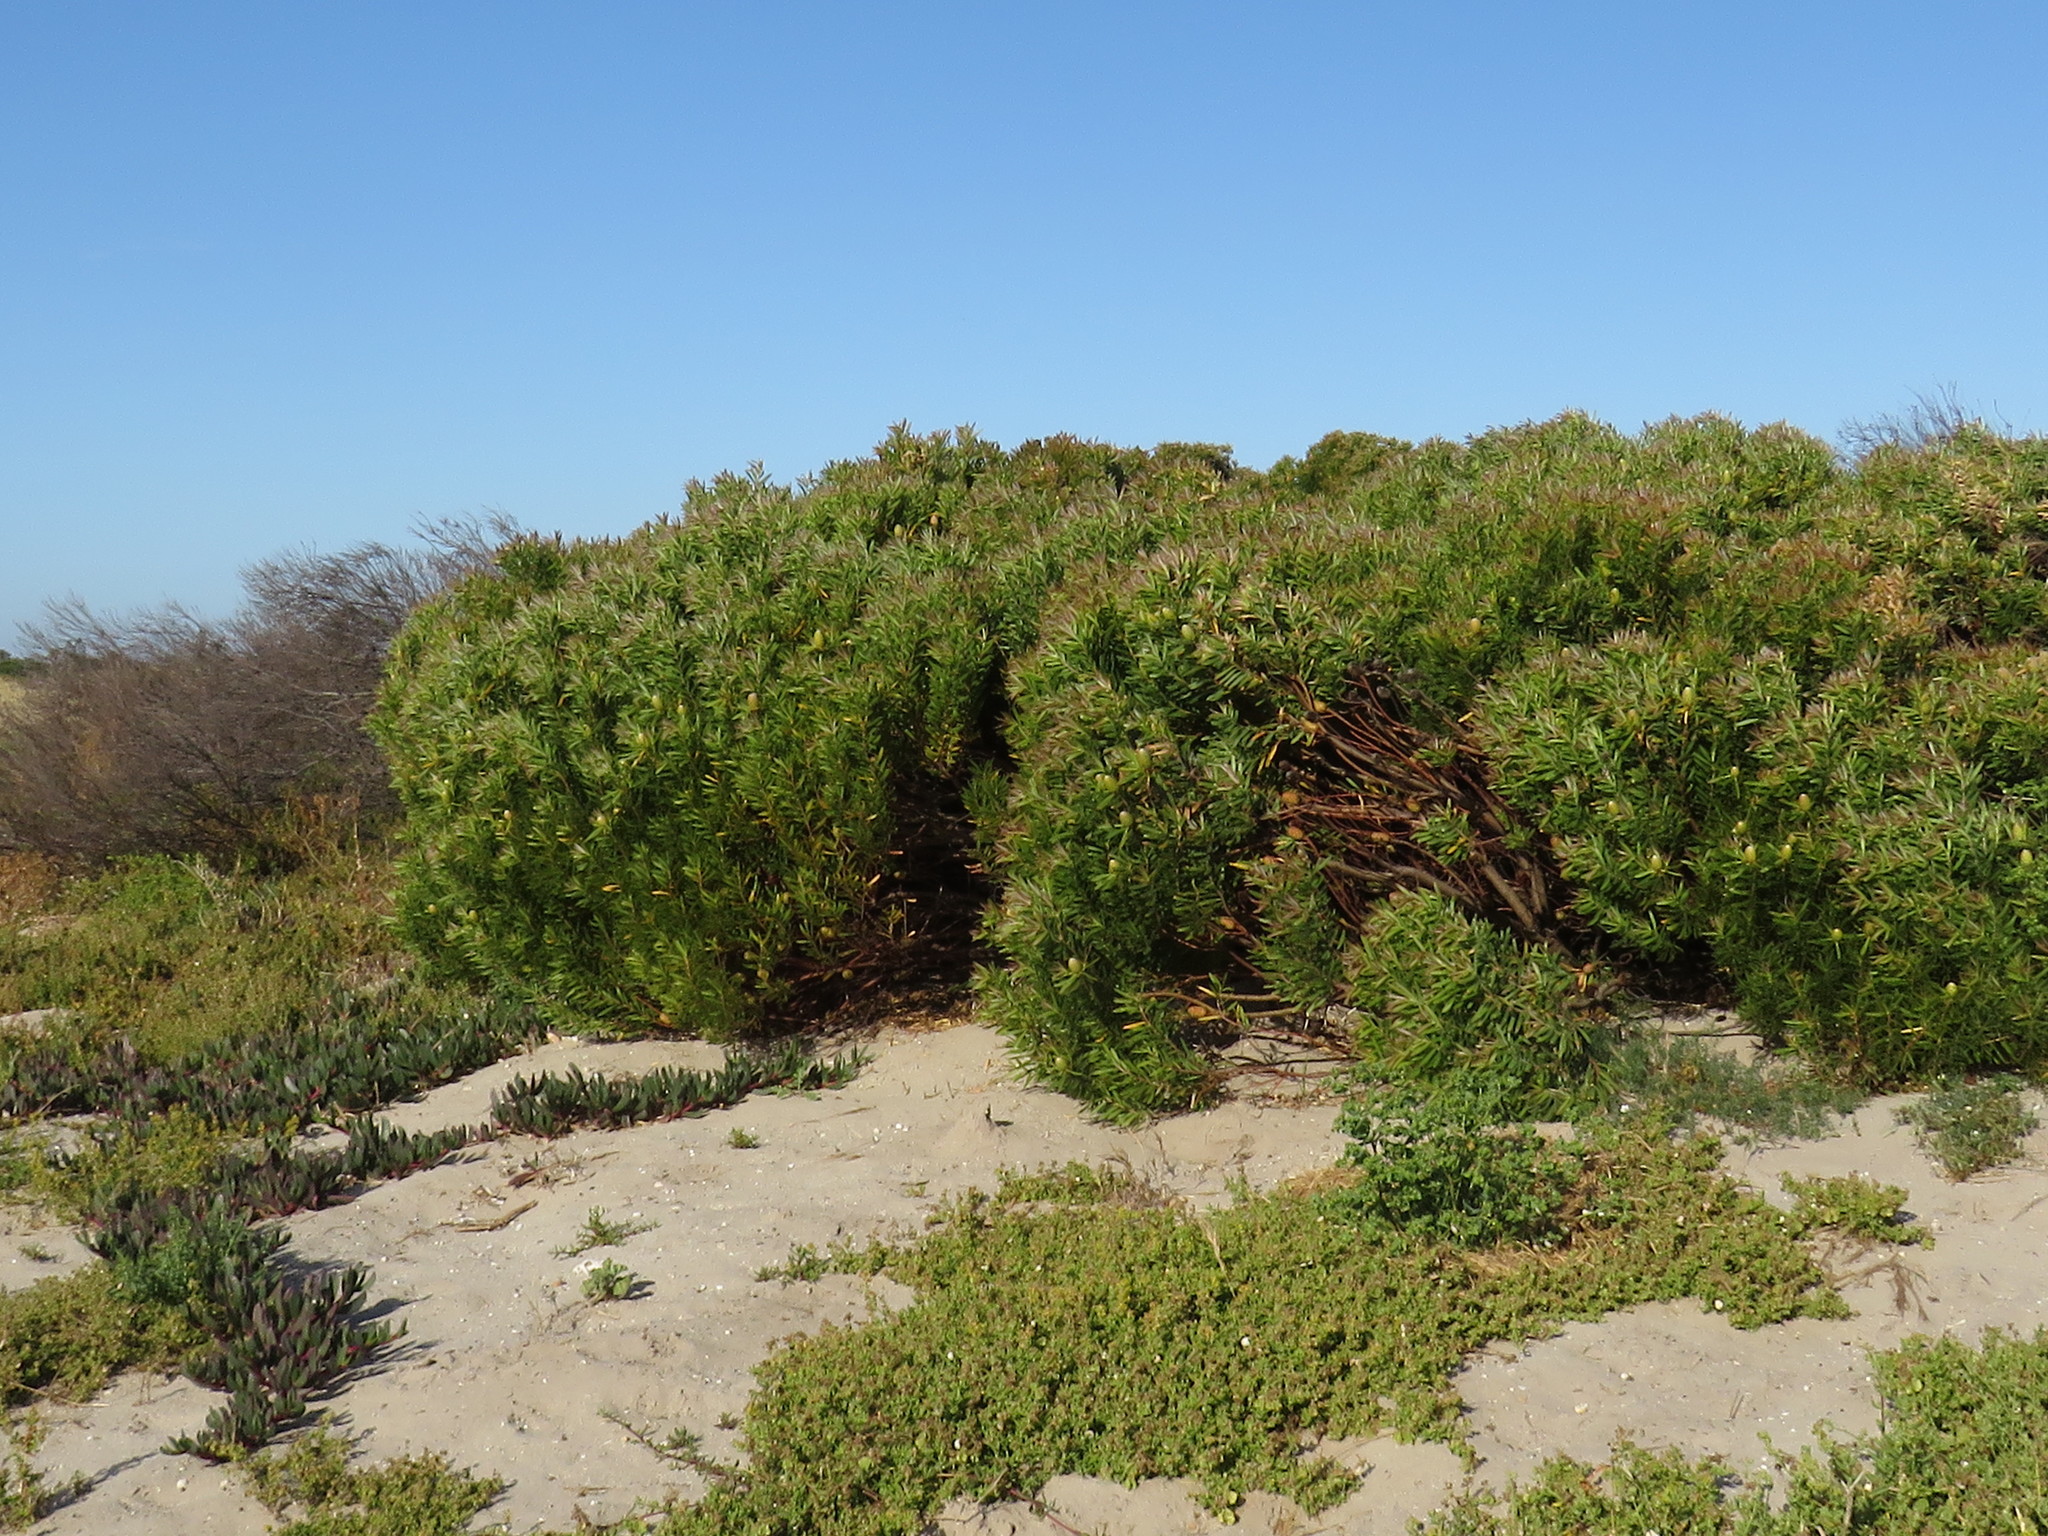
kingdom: Plantae
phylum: Tracheophyta
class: Magnoliopsida
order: Proteales
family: Proteaceae
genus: Leucadendron
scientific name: Leucadendron coniferum
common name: Dune conebush
